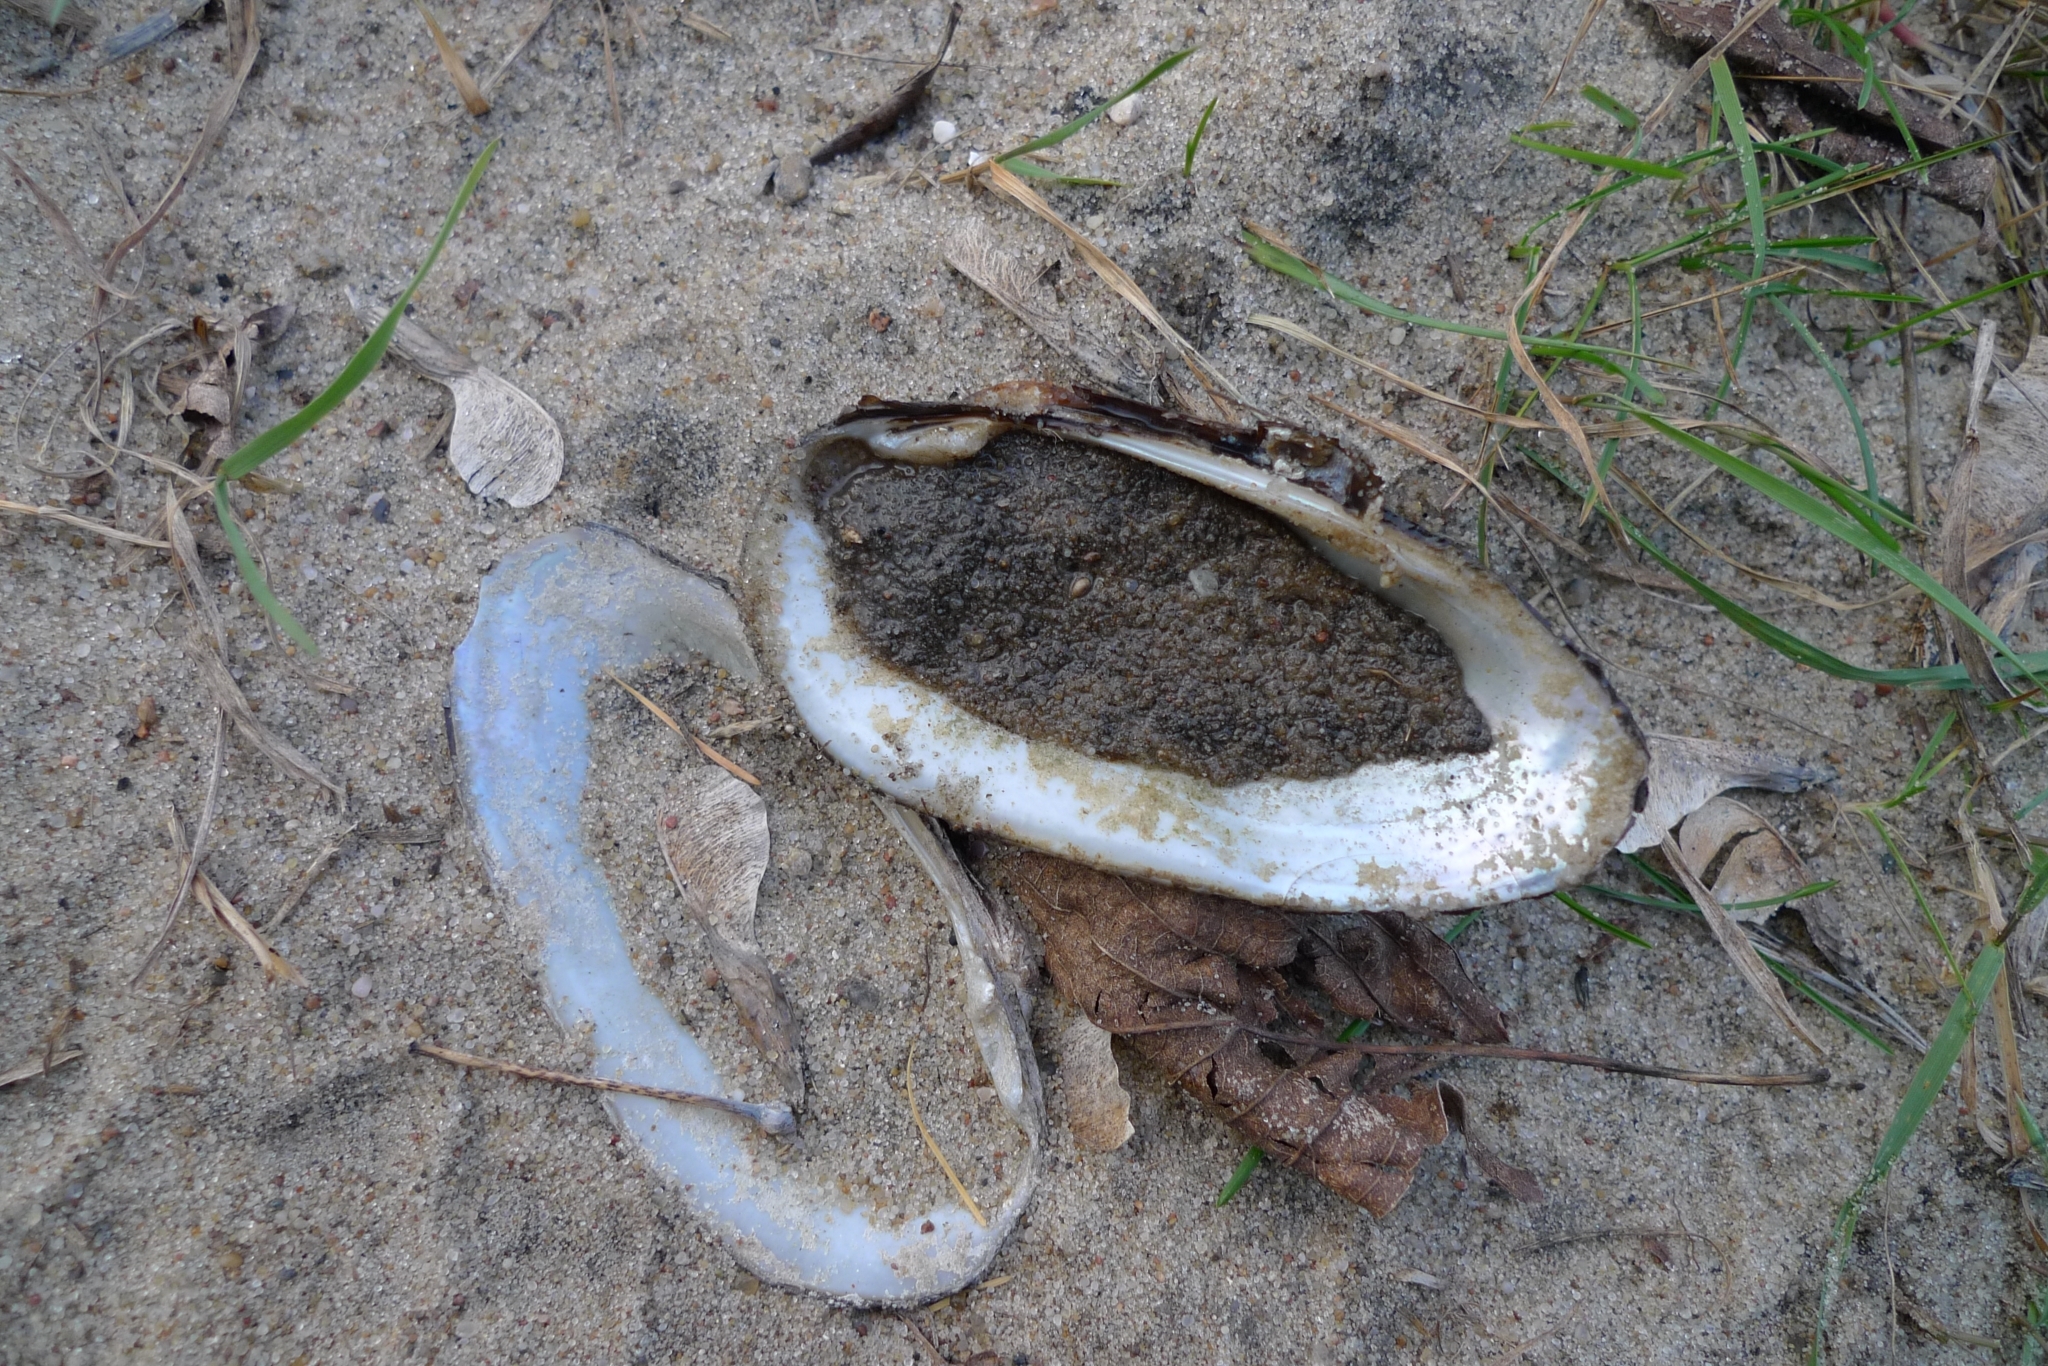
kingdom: Animalia
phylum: Mollusca
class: Bivalvia
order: Unionida
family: Unionidae
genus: Unio
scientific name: Unio tumidus
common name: Swollen river mussel
